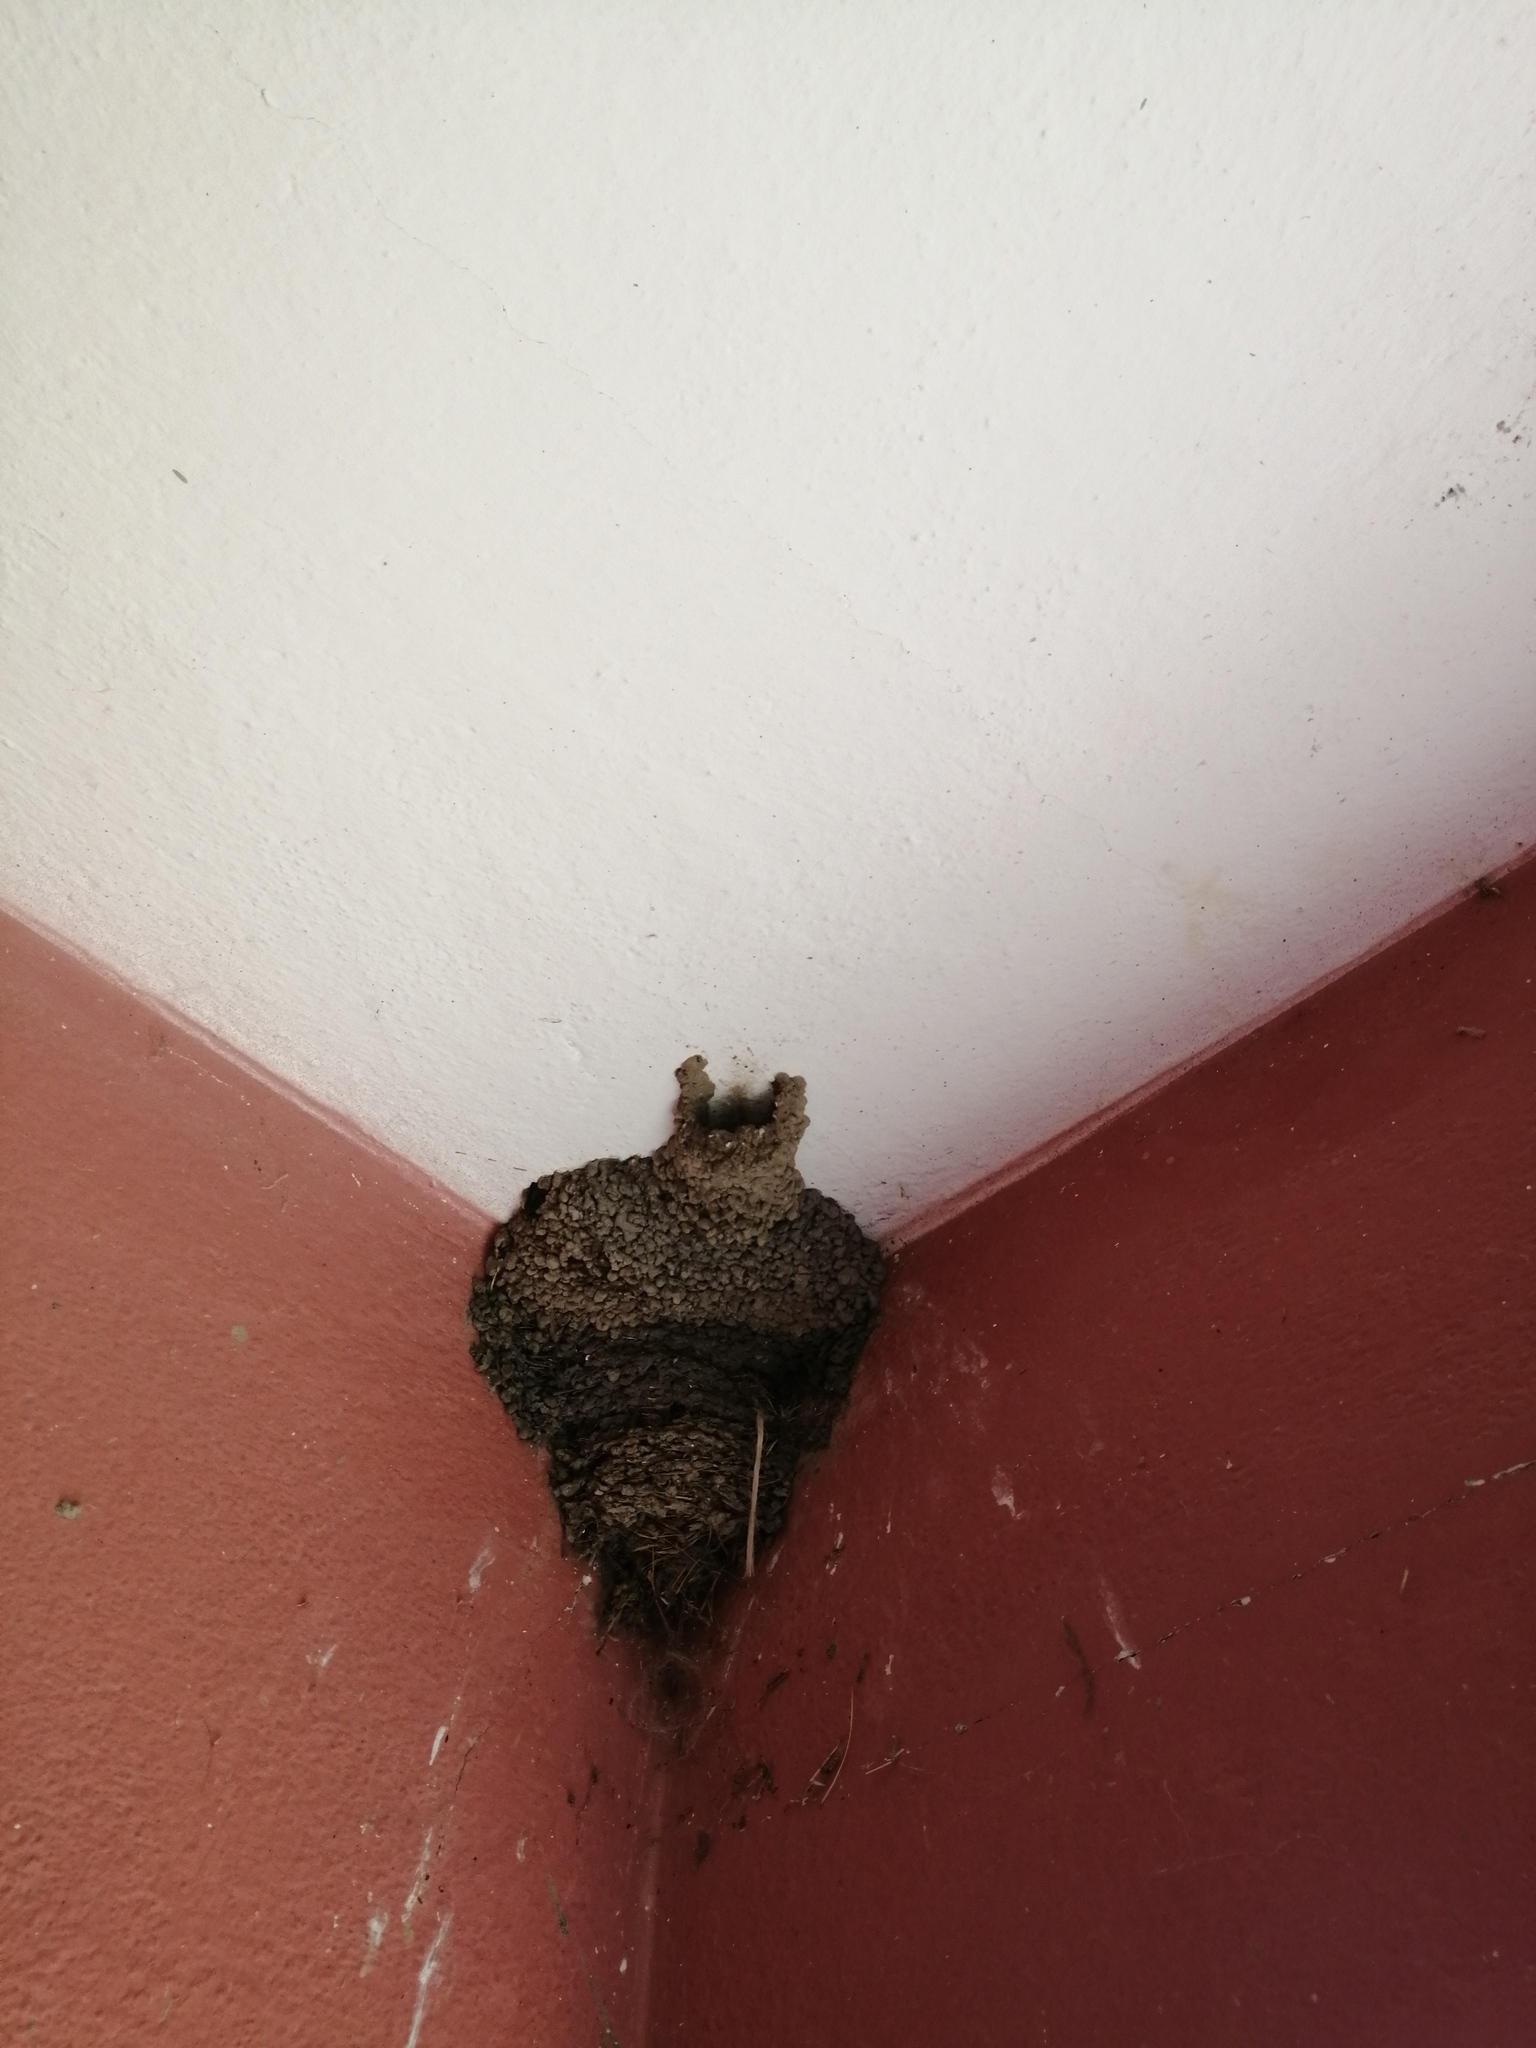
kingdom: Animalia
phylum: Chordata
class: Aves
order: Passeriformes
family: Hirundinidae
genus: Cecropis
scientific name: Cecropis daurica
